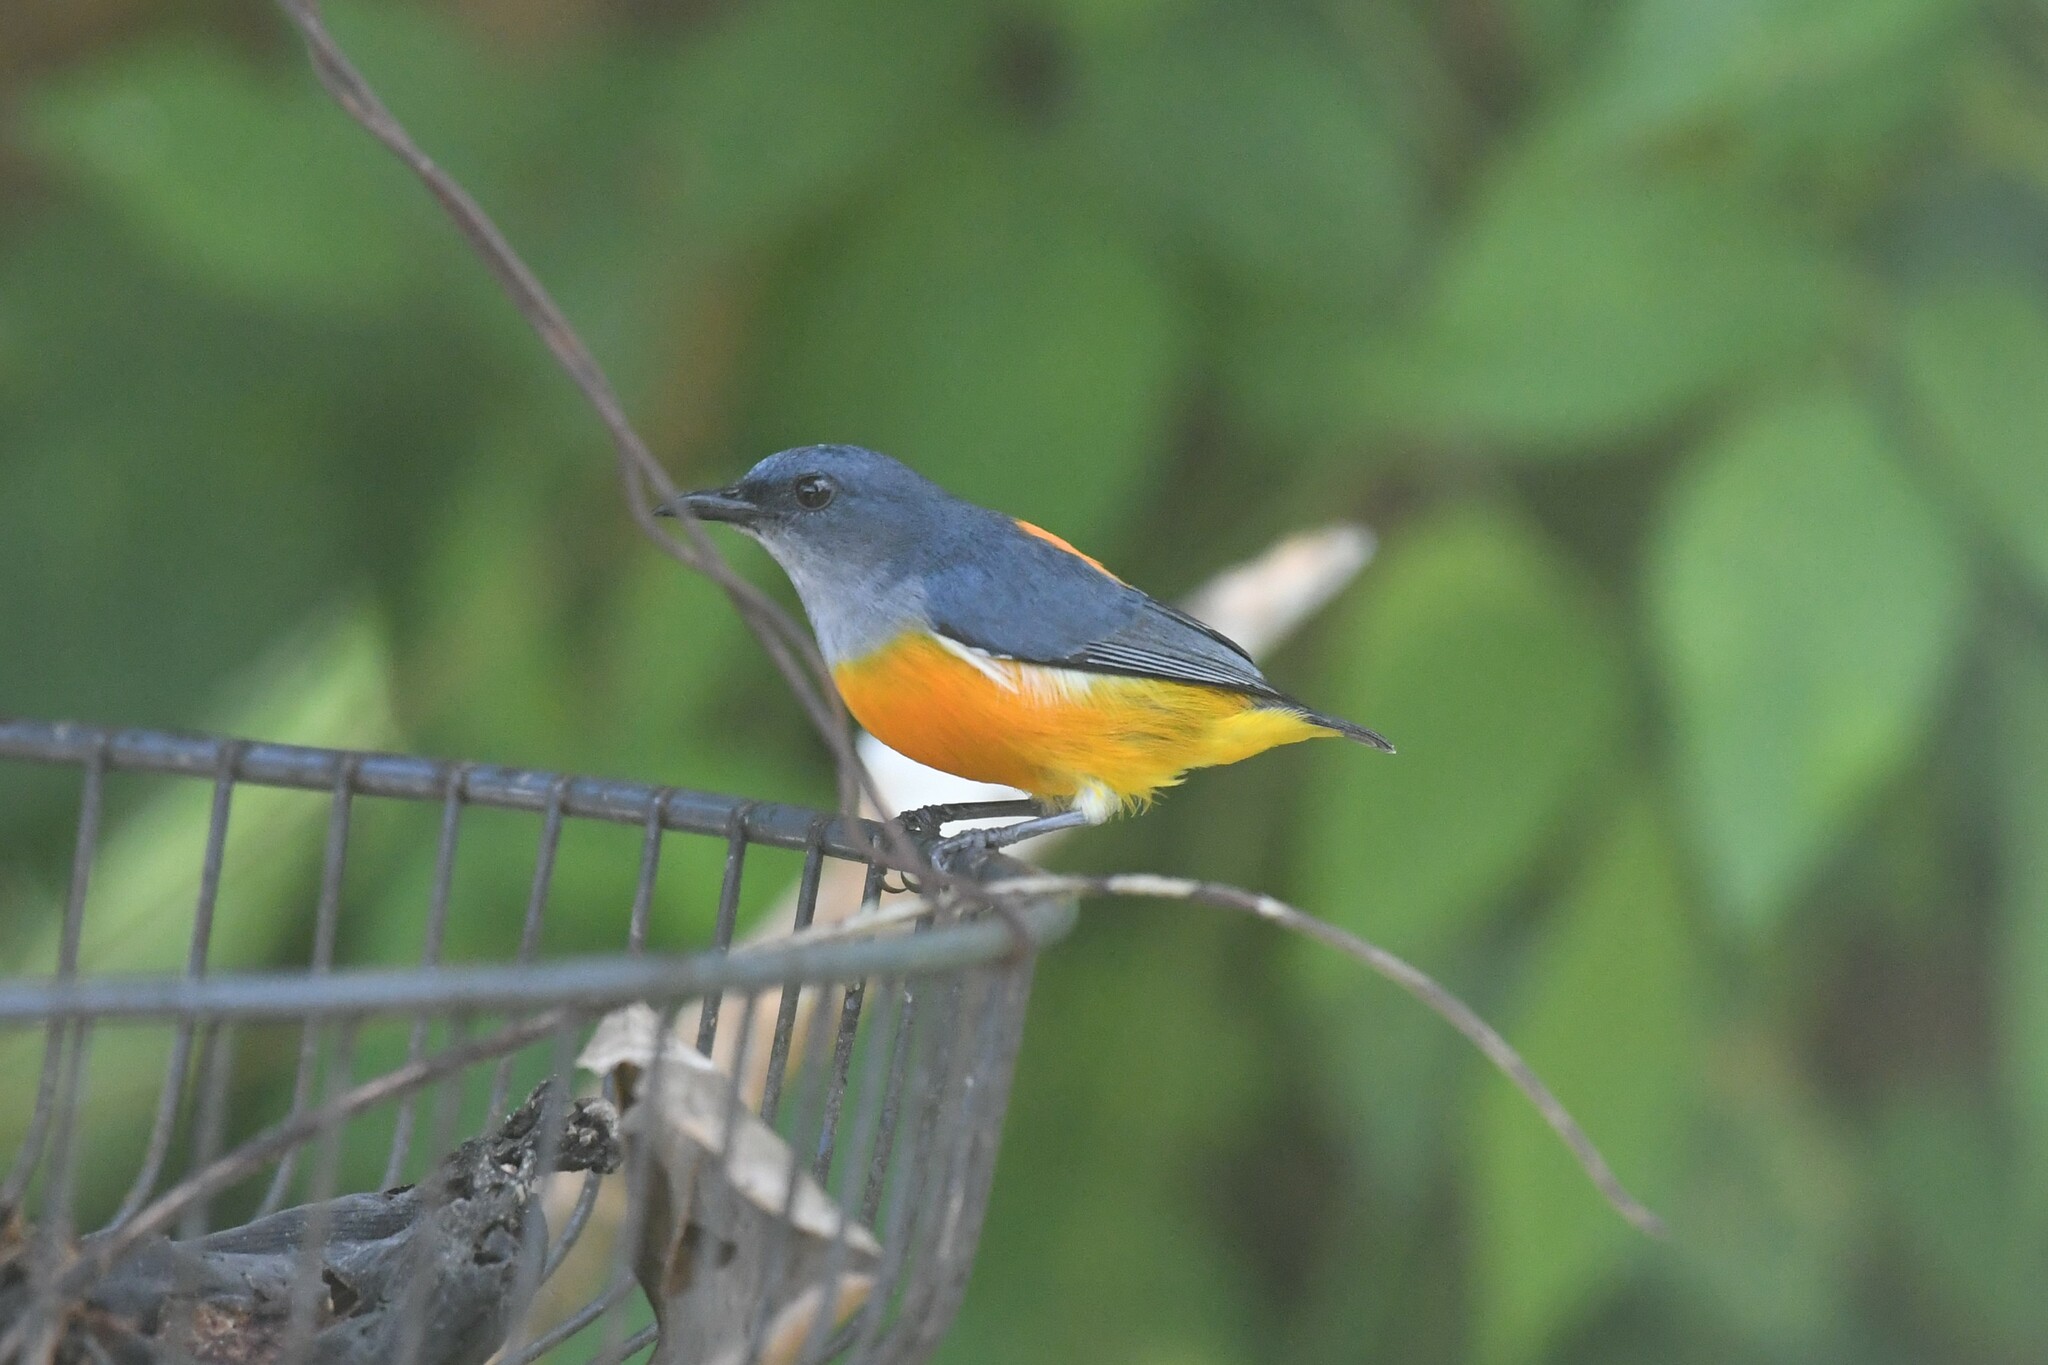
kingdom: Animalia
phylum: Chordata
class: Aves
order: Passeriformes
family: Dicaeidae
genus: Dicaeum
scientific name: Dicaeum trigonostigma
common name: Orange-bellied flowerpecker
